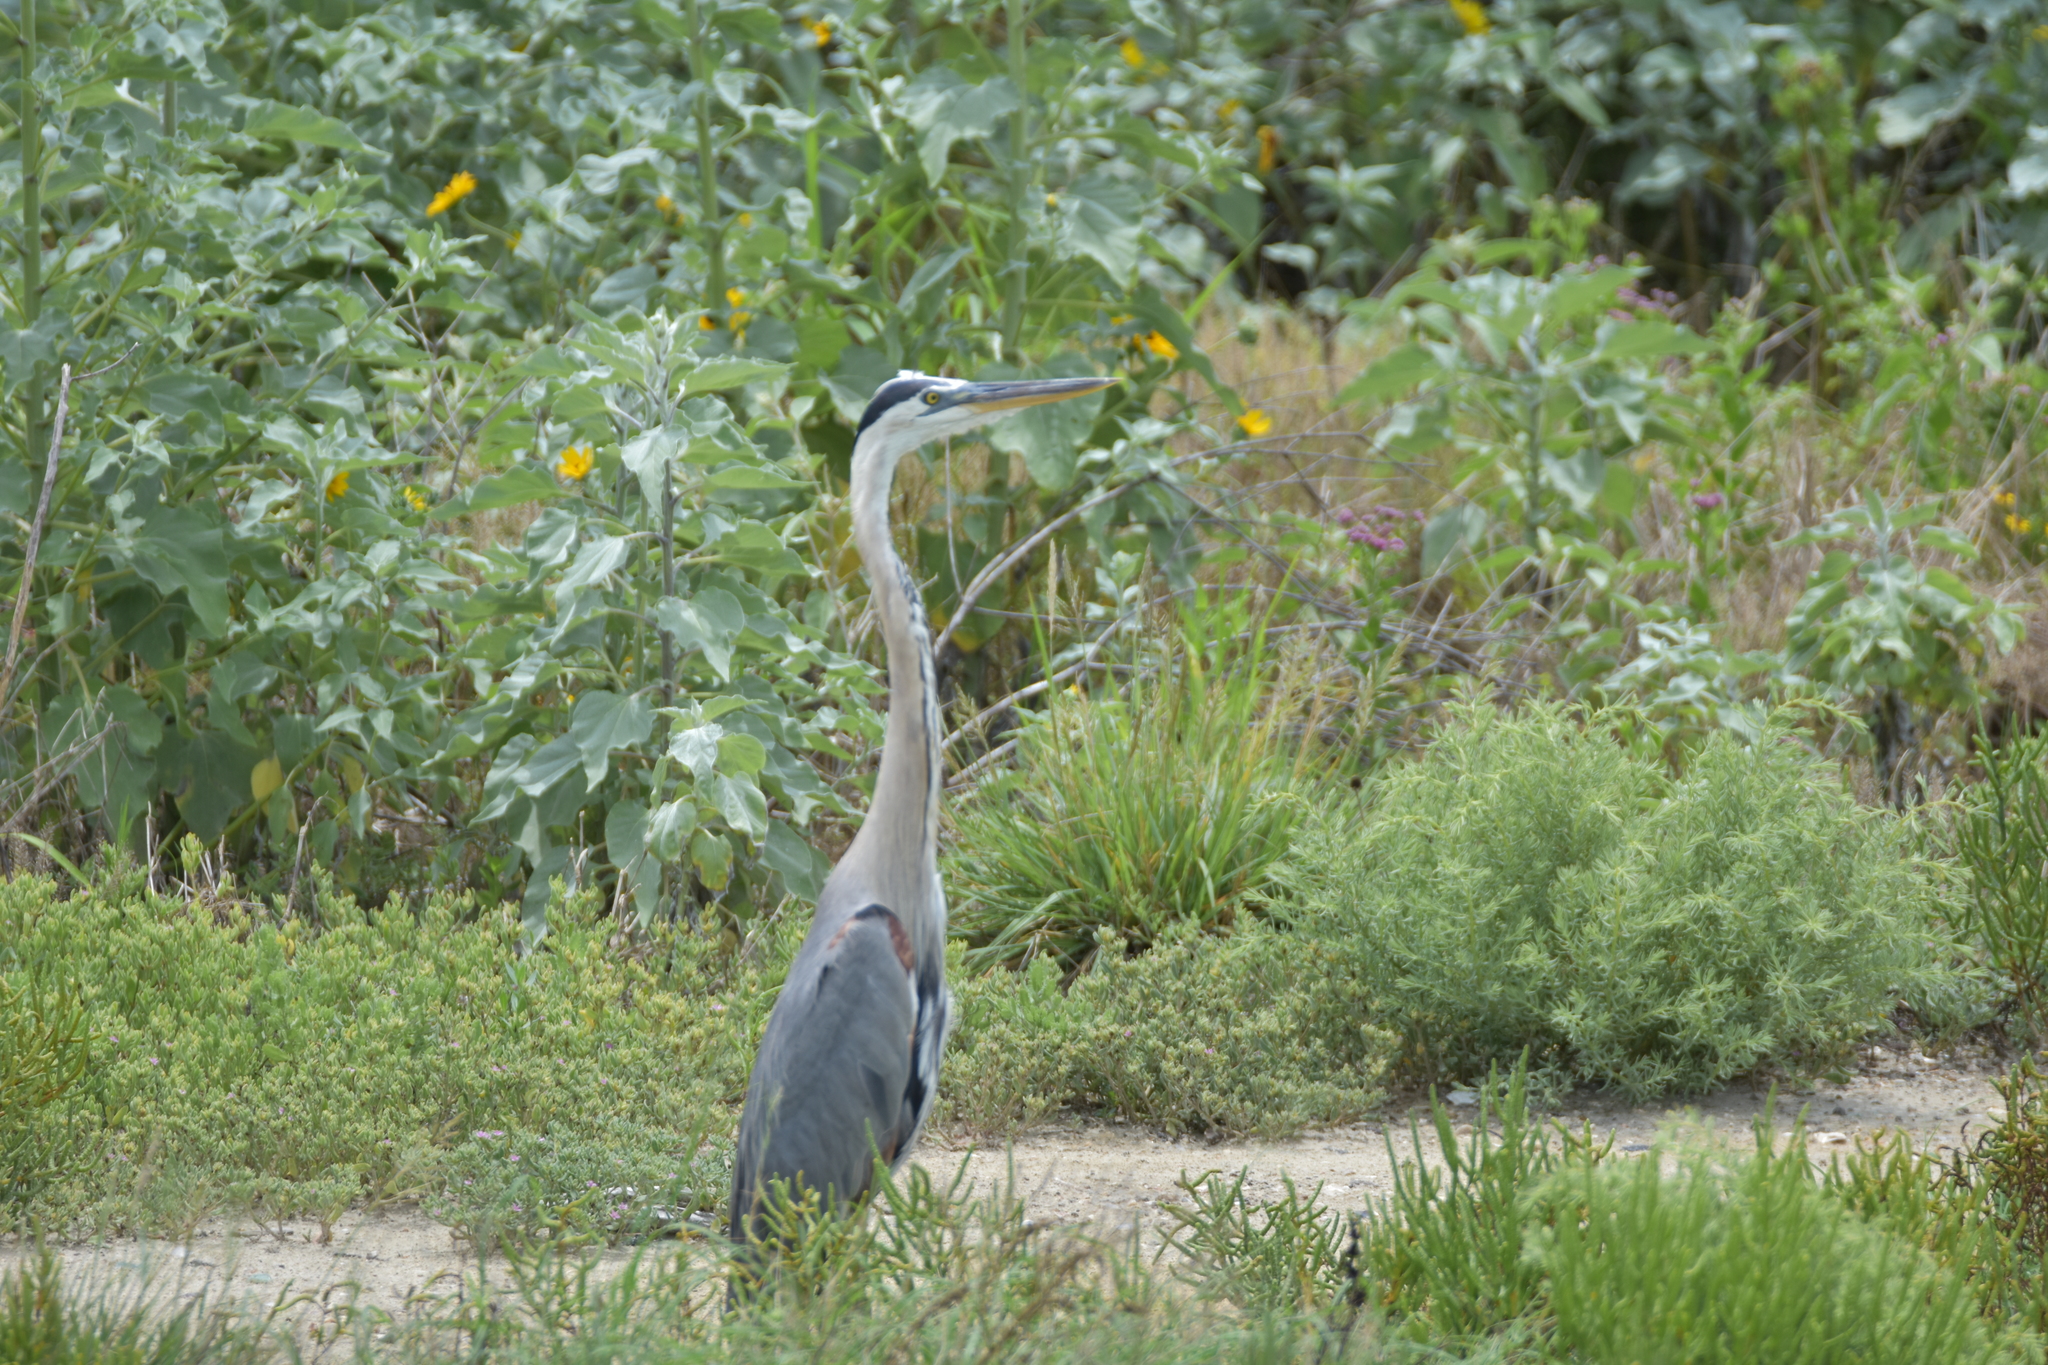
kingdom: Animalia
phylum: Chordata
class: Aves
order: Pelecaniformes
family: Ardeidae
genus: Ardea
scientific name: Ardea herodias
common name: Great blue heron
